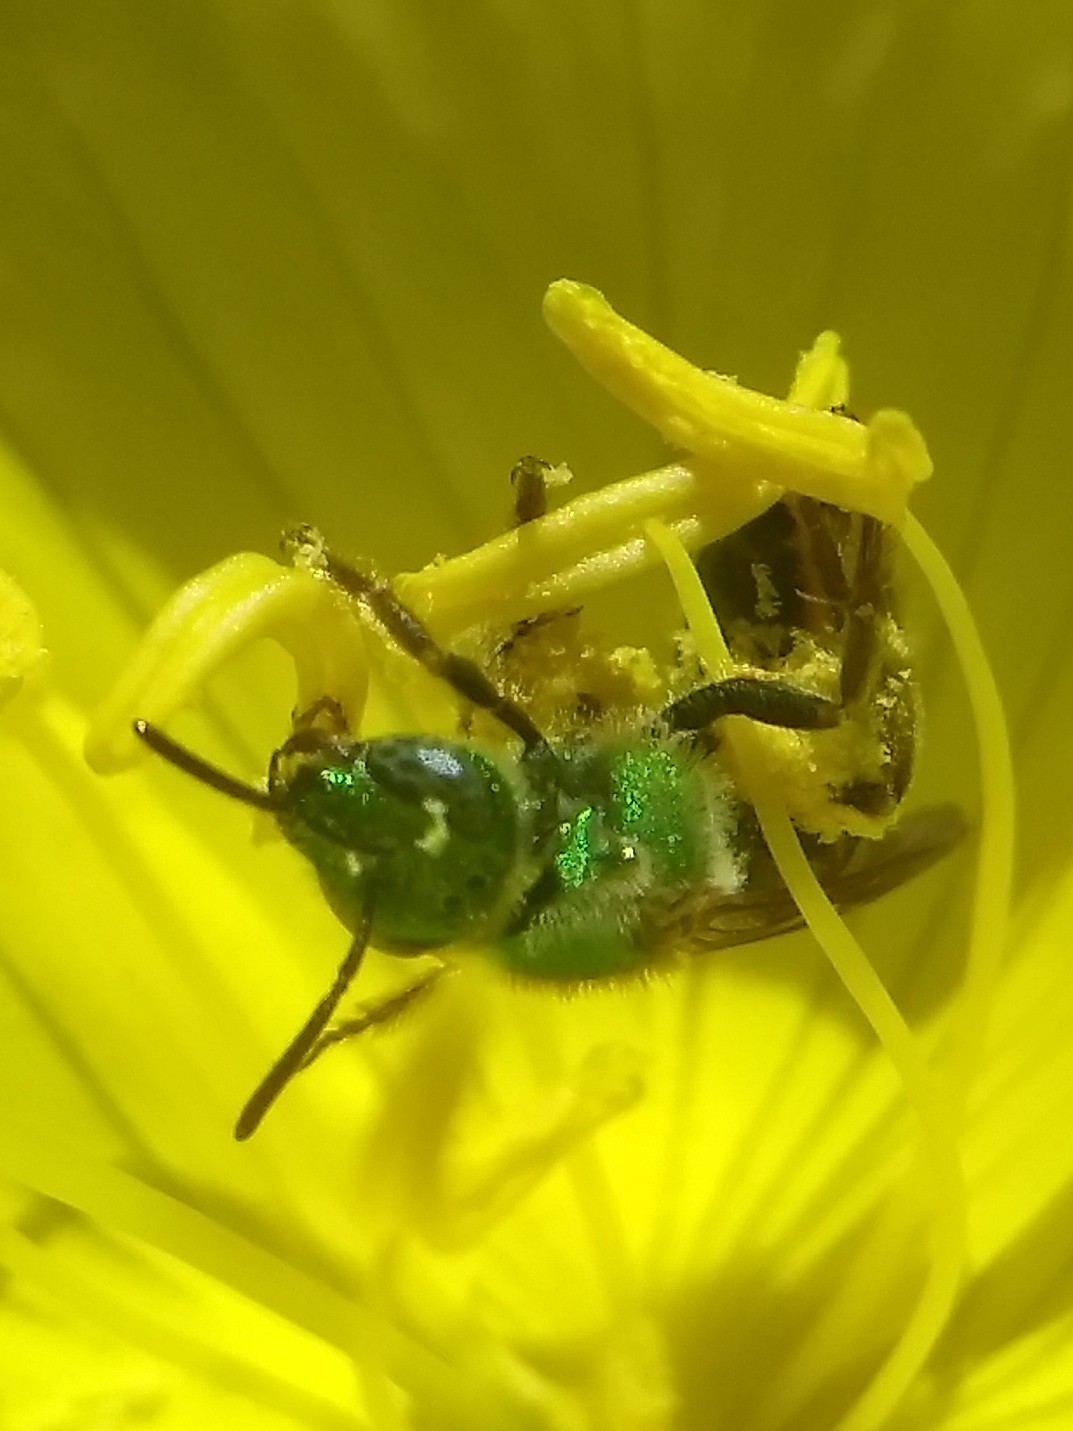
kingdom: Animalia
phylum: Arthropoda
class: Insecta
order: Hymenoptera
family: Halictidae
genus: Agapostemon
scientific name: Agapostemon virescens
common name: Bicolored striped sweat bee
